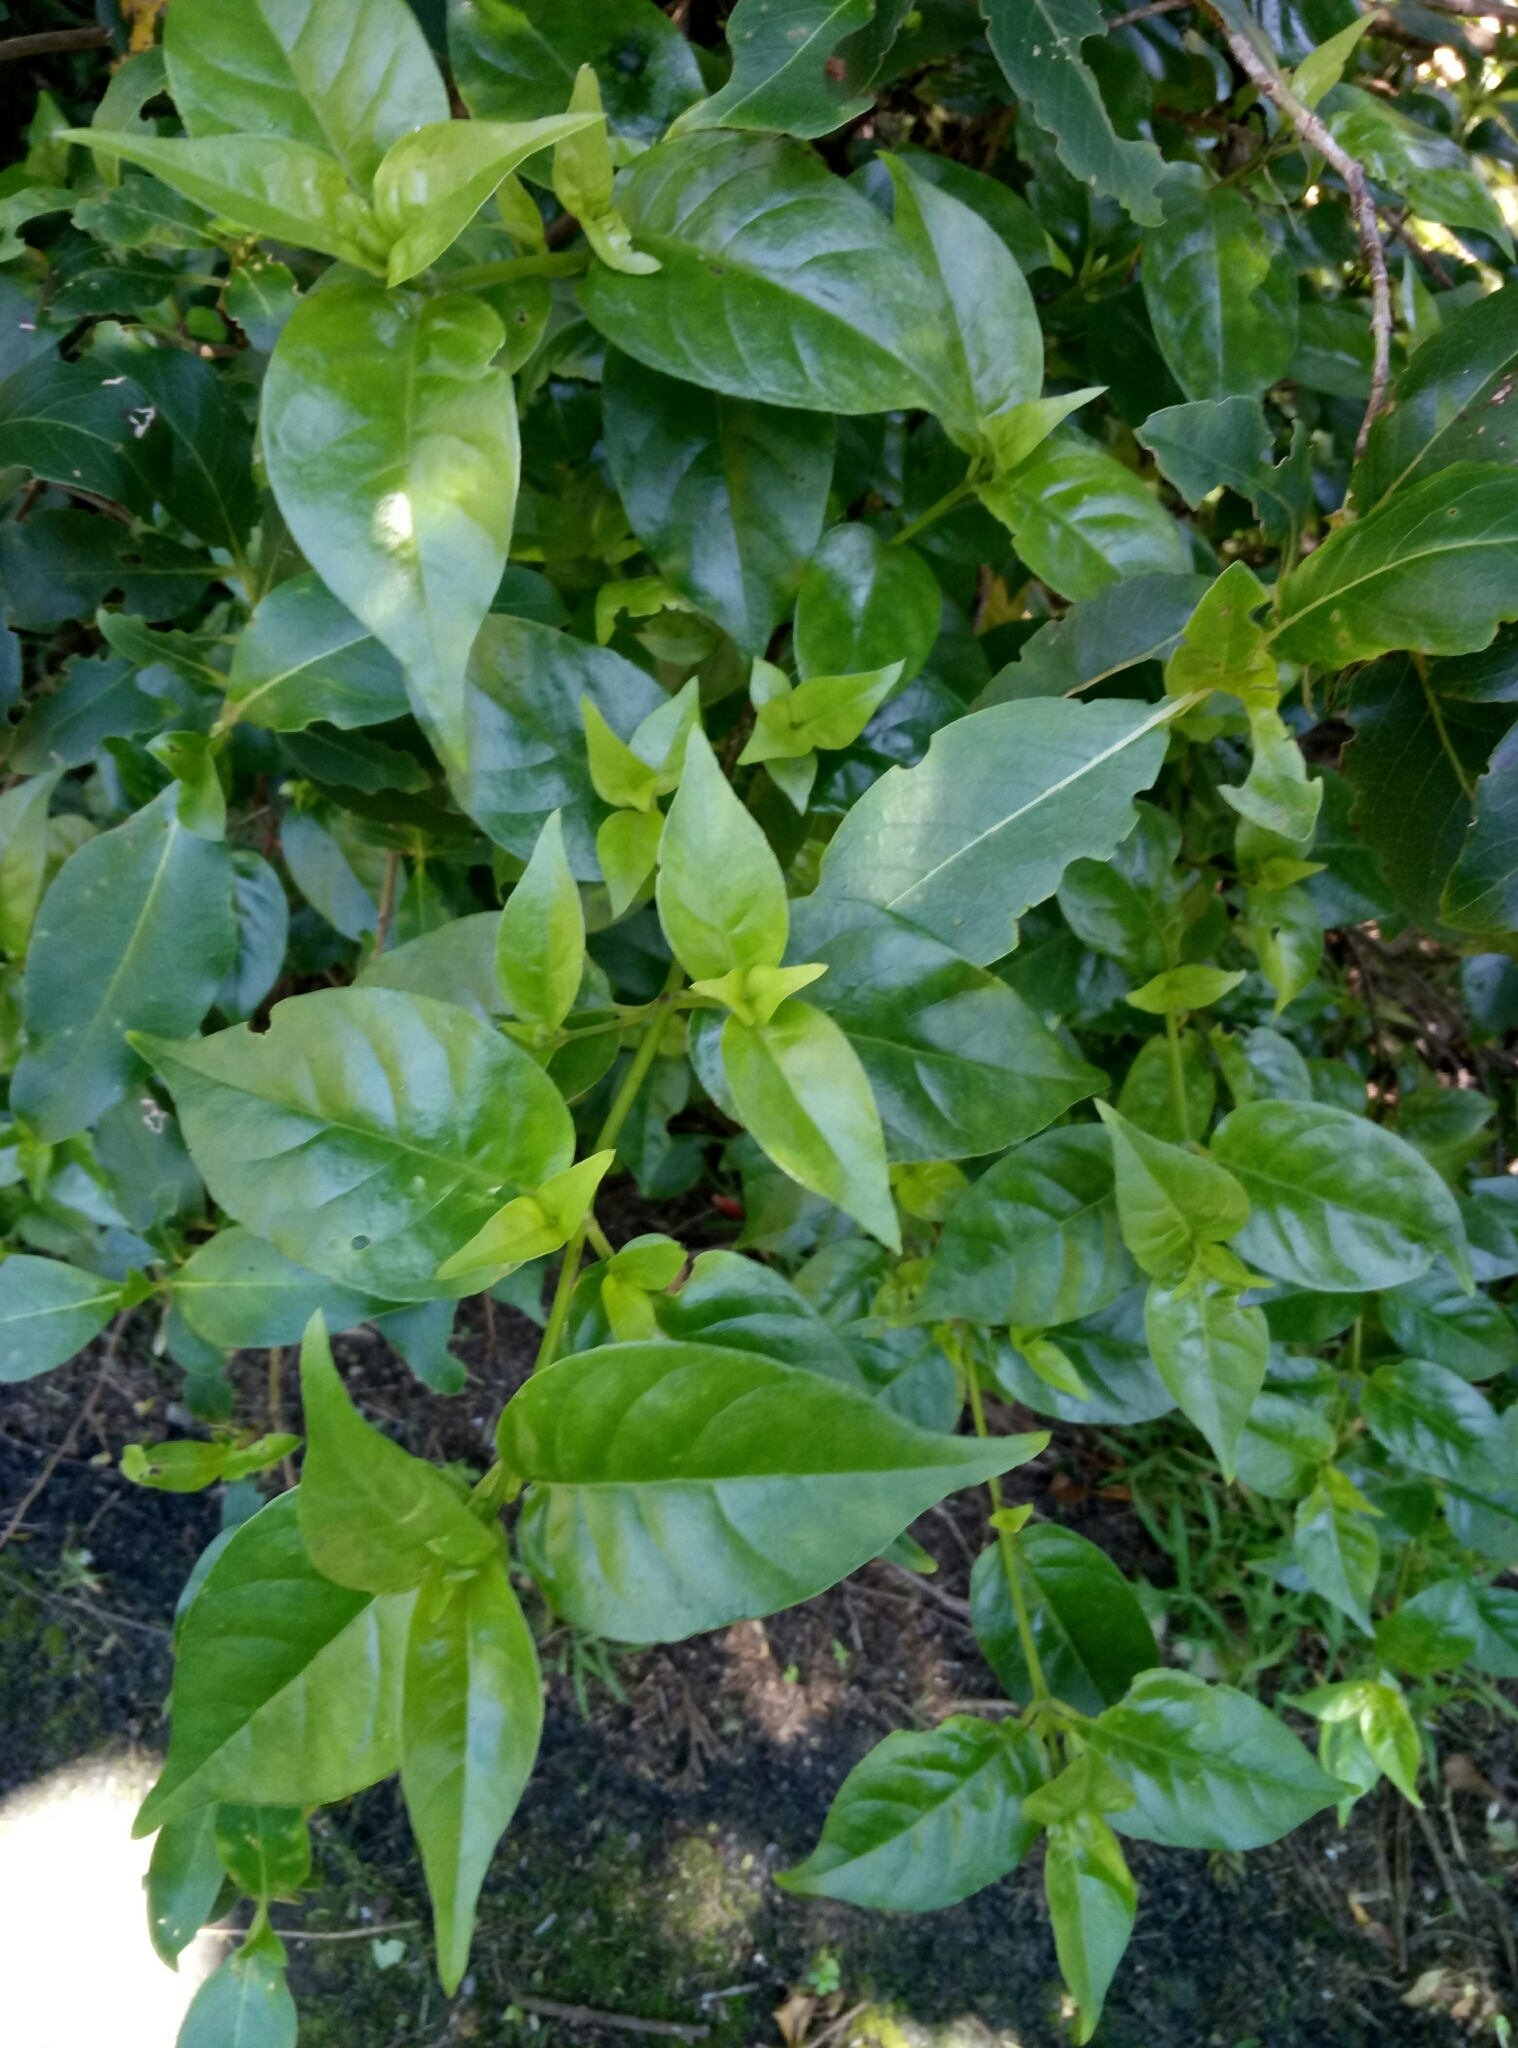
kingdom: Plantae
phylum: Tracheophyta
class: Magnoliopsida
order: Gentianales
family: Loganiaceae
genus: Geniostoma
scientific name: Geniostoma ligustrifolium
